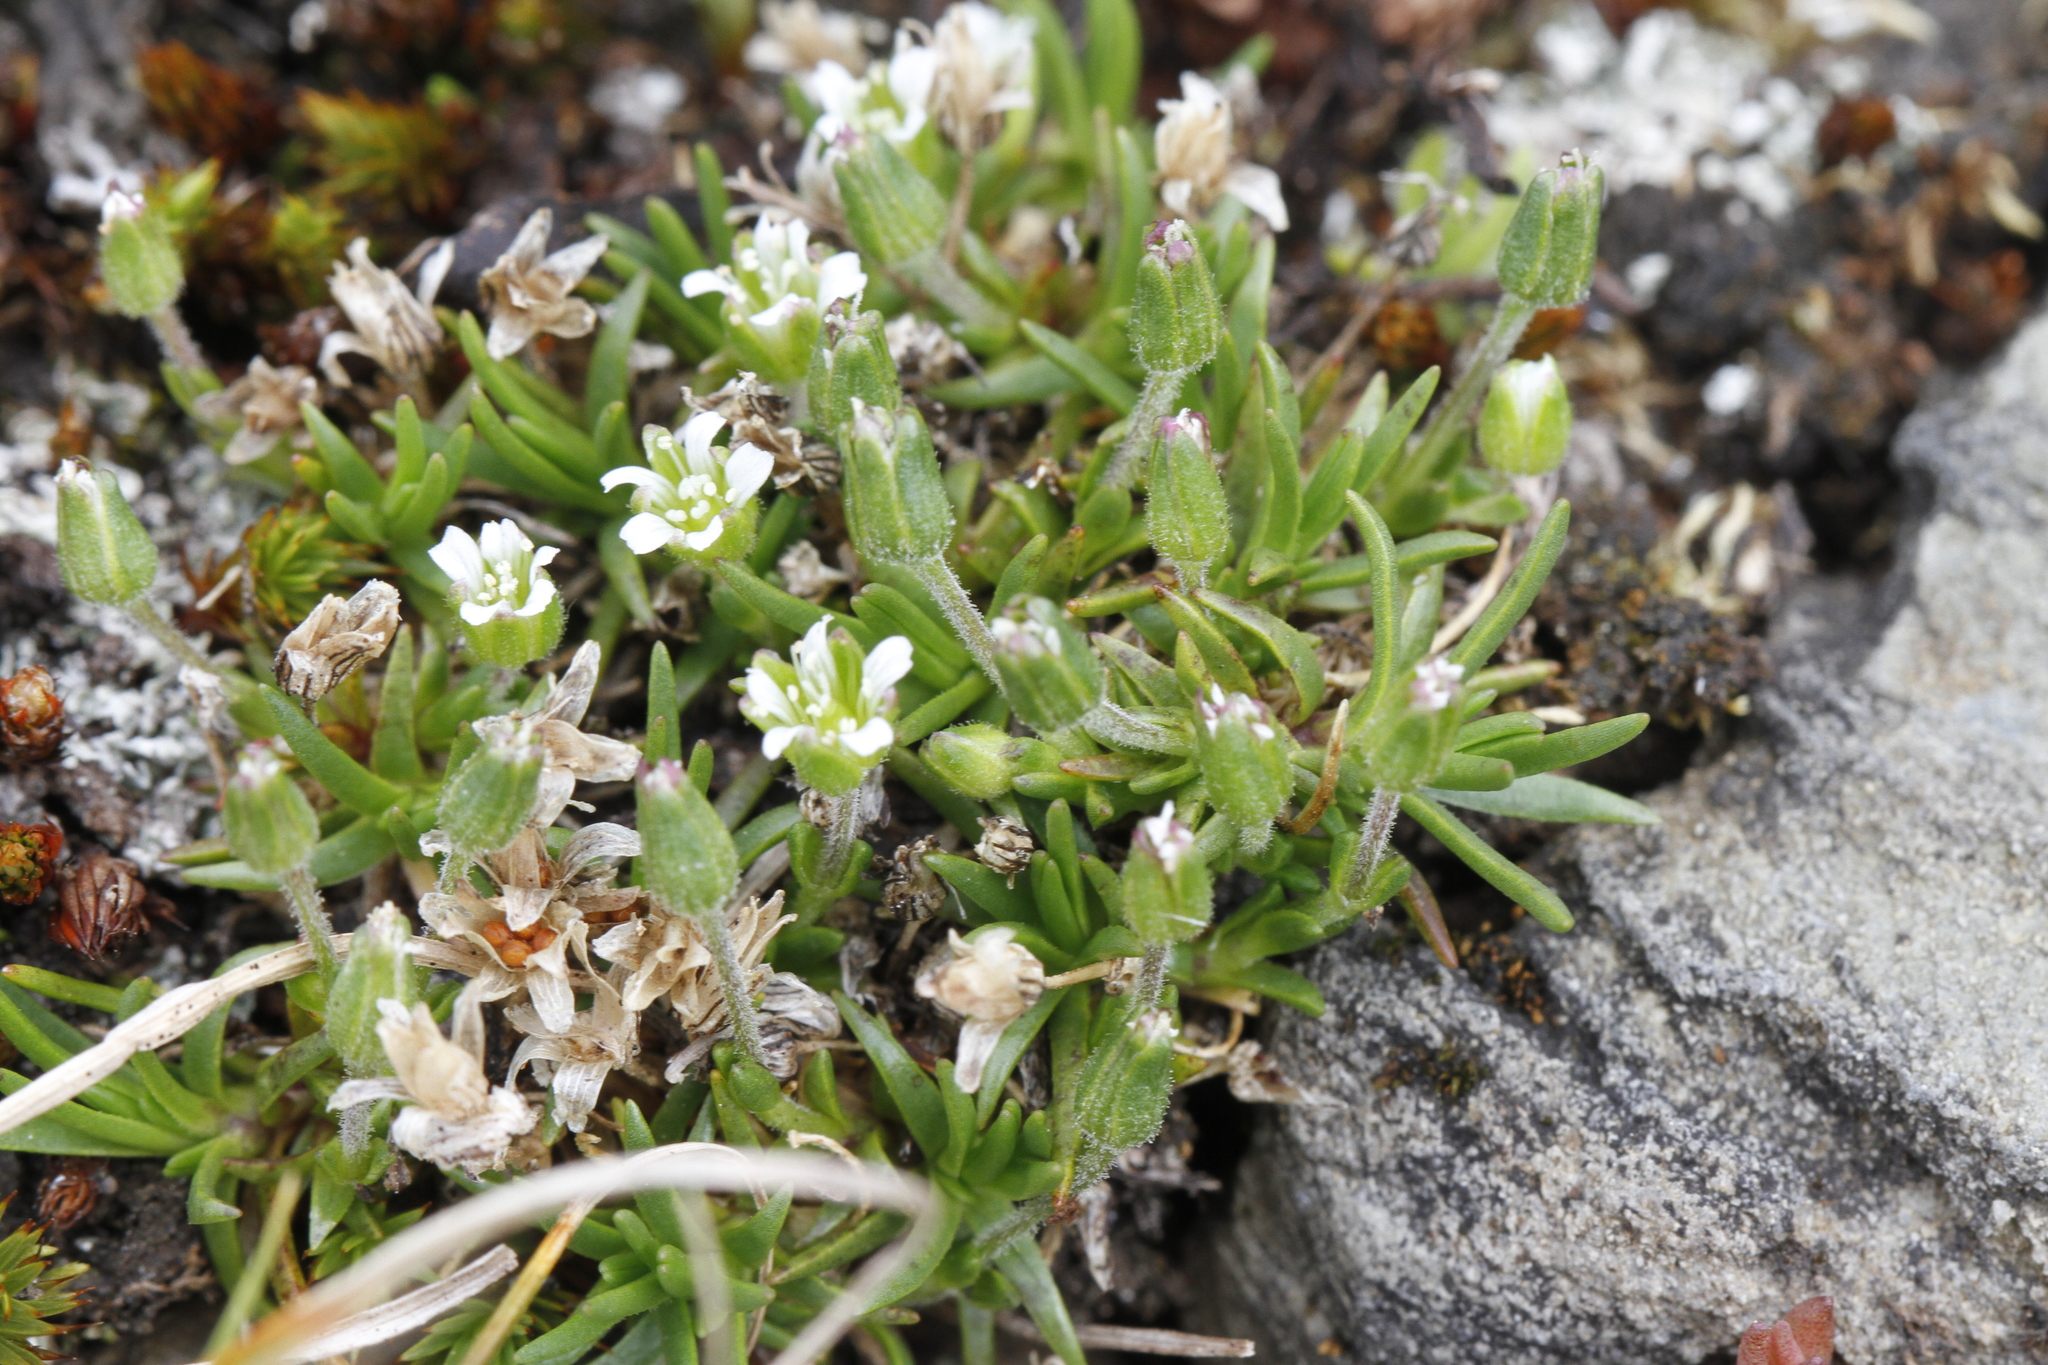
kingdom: Plantae
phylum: Tracheophyta
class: Magnoliopsida
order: Caryophyllales
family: Caryophyllaceae
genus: Cherleria
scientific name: Cherleria biflora
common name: Mountain sandwort
